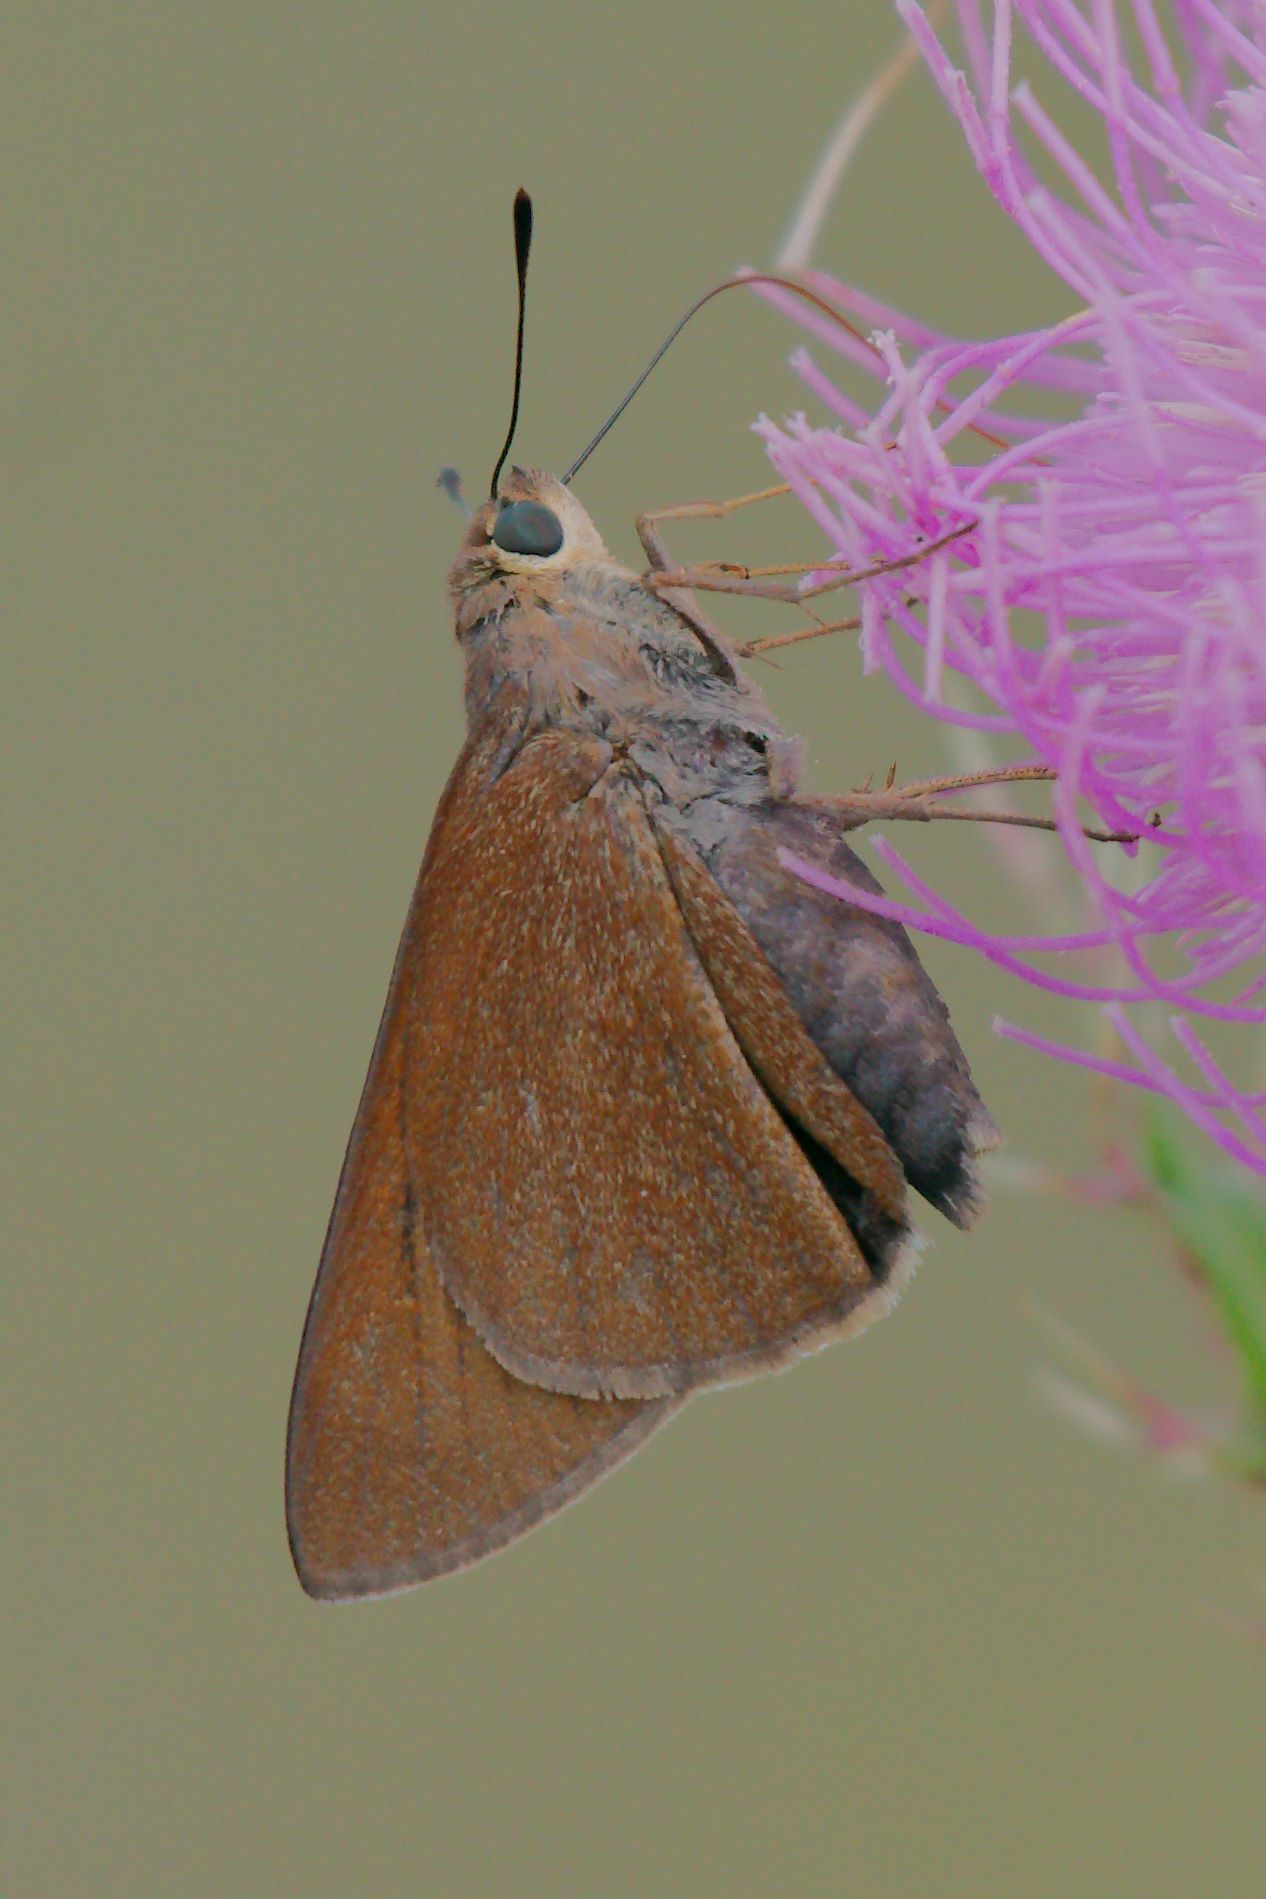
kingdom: Animalia
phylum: Arthropoda
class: Insecta
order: Lepidoptera
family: Hesperiidae
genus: Asbolis
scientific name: Asbolis capucinus
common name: Monk skipper
